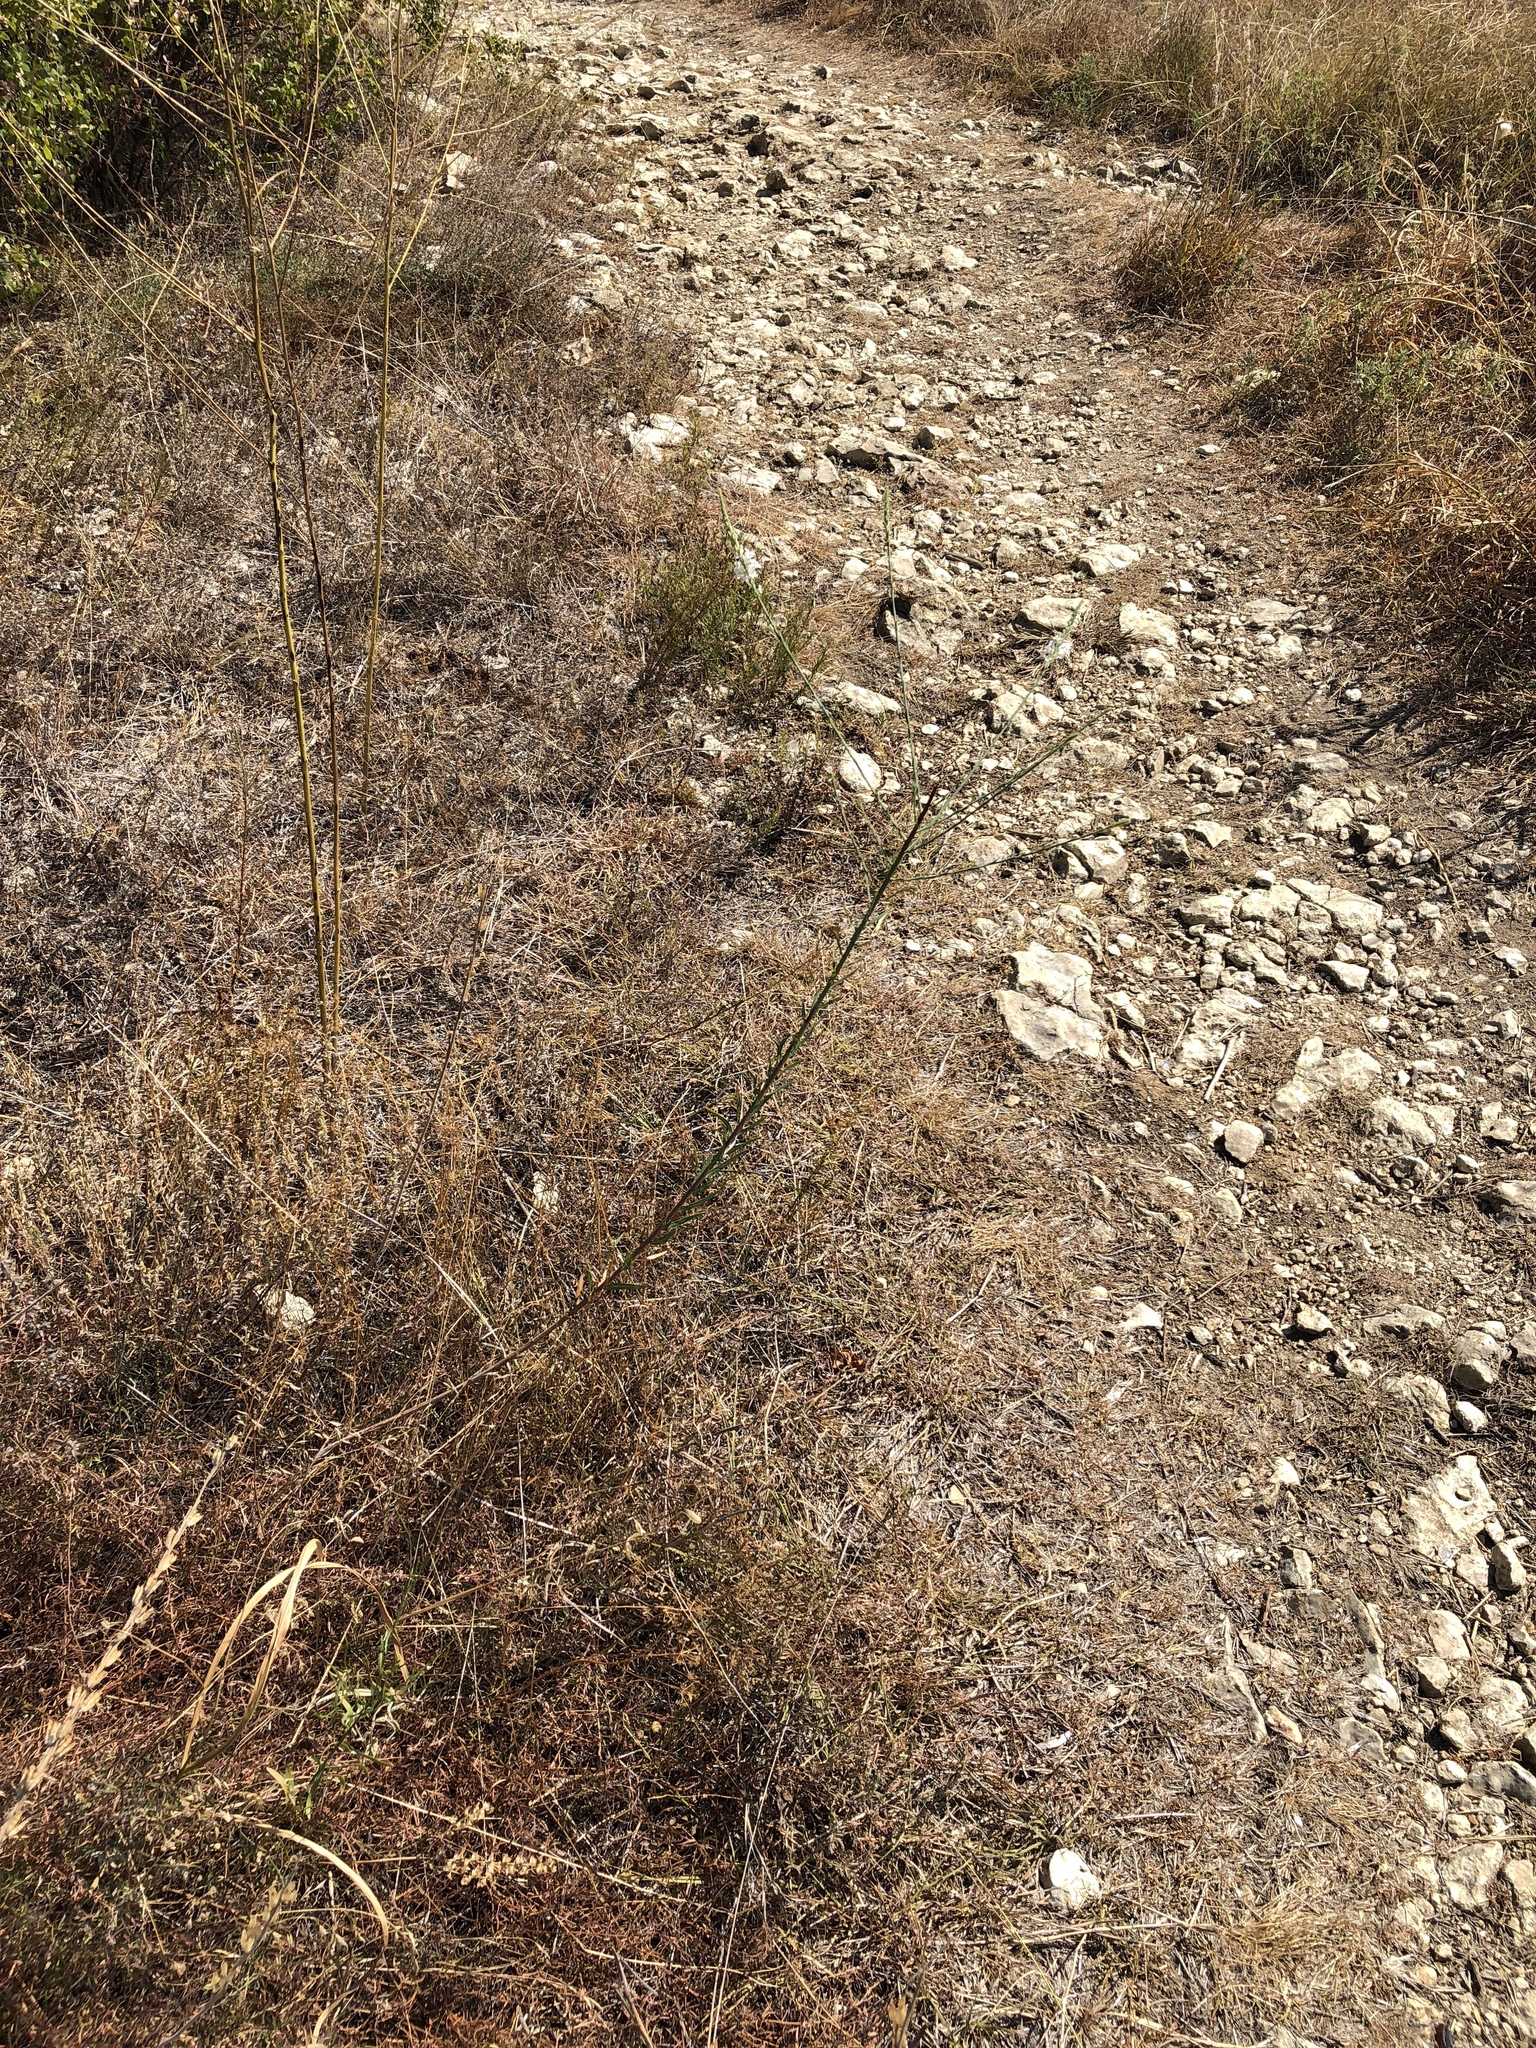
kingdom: Plantae
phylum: Tracheophyta
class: Magnoliopsida
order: Myrtales
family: Onagraceae
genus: Oenothera
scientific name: Oenothera glaucifolia
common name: False gaura
